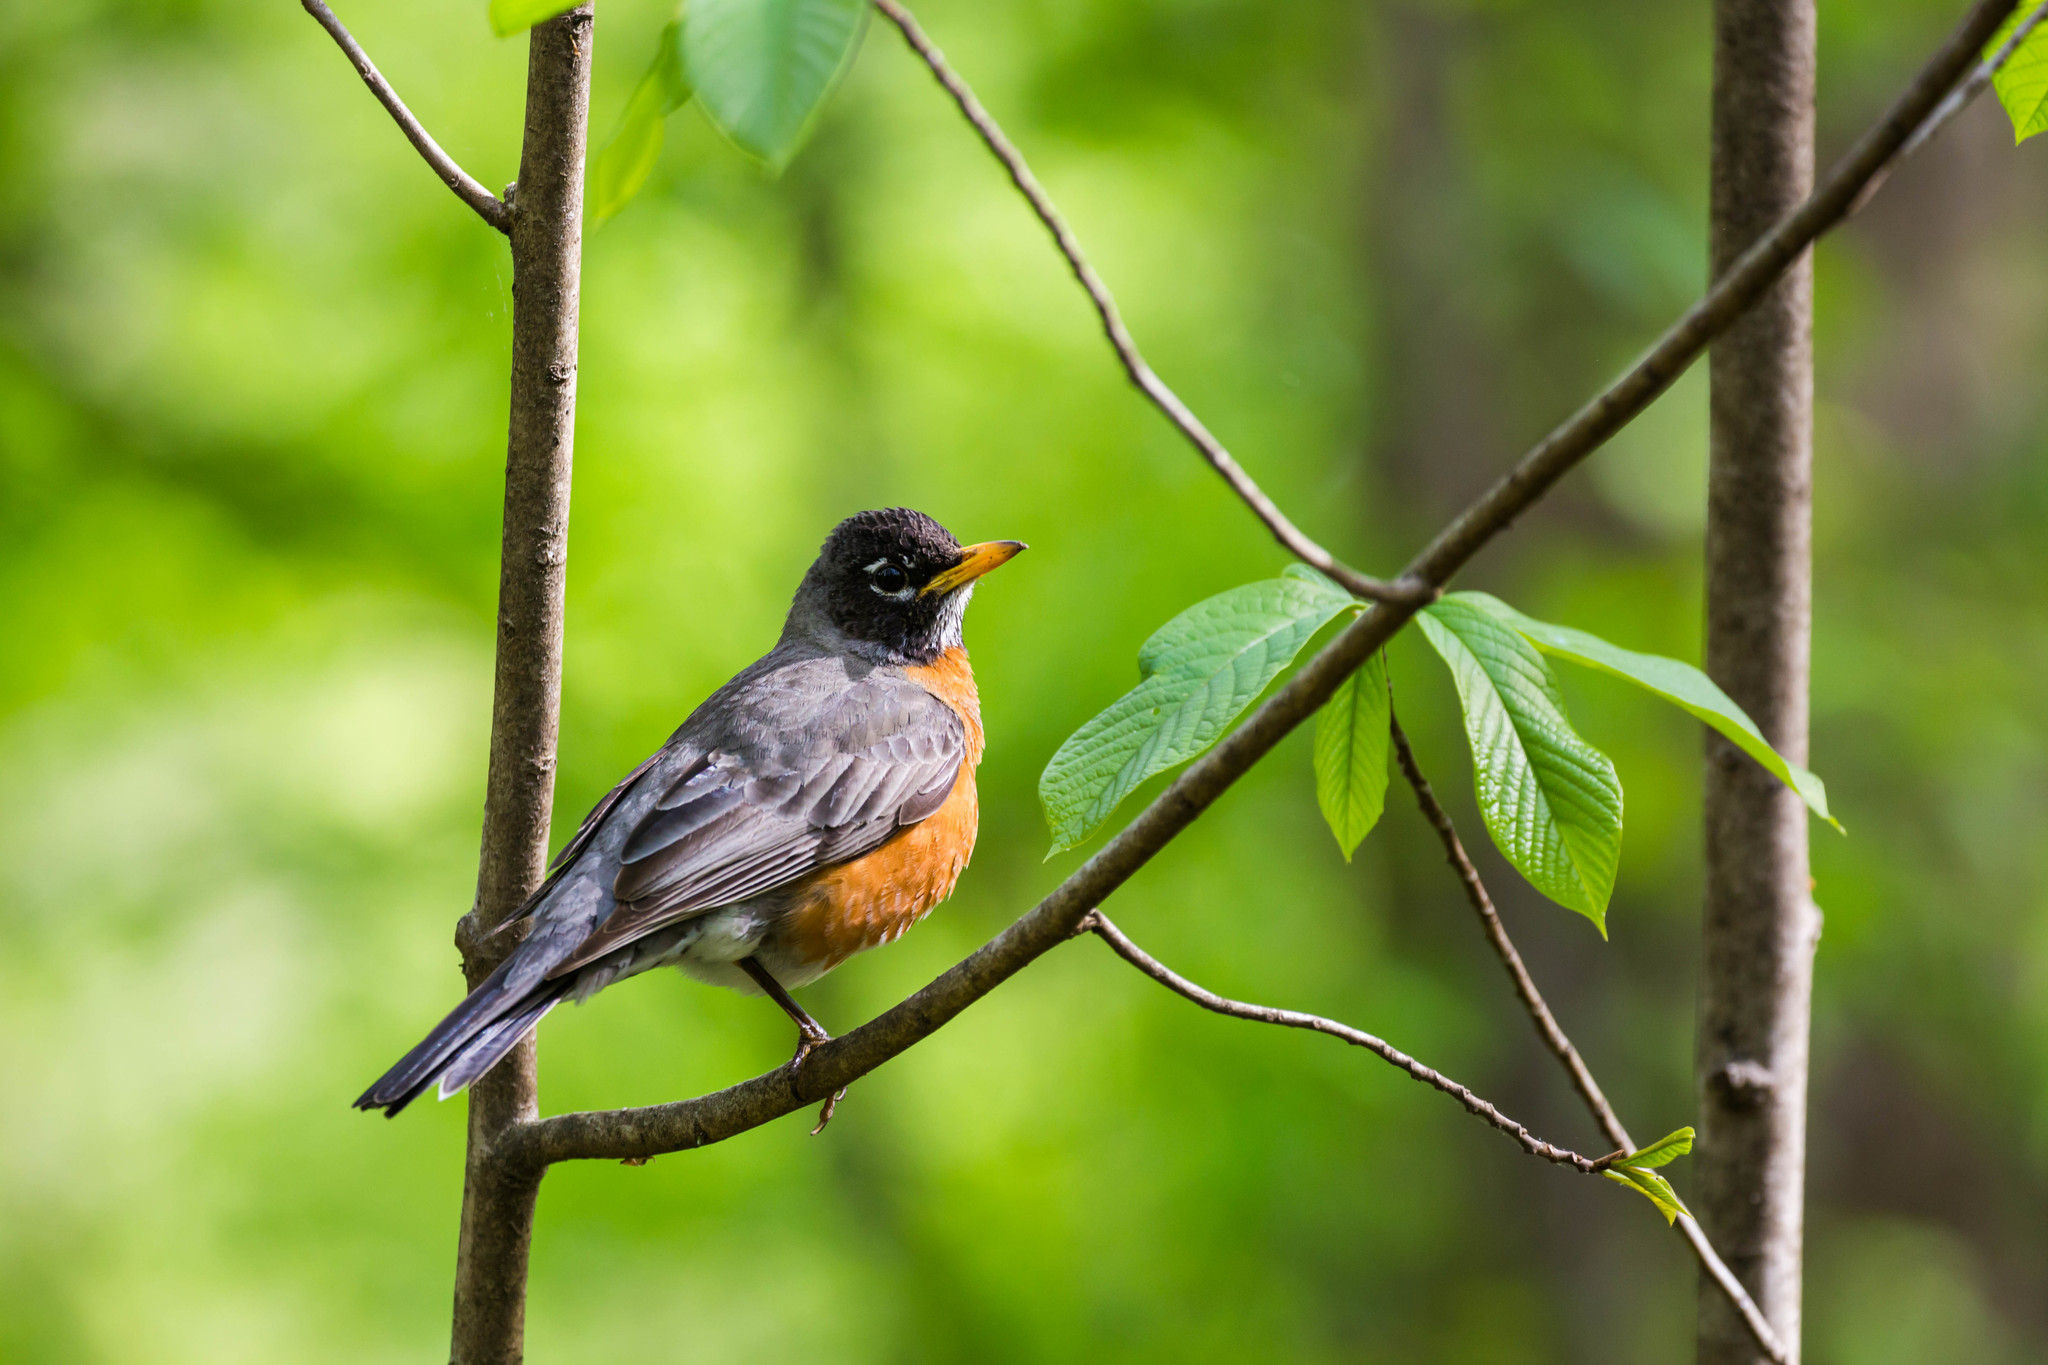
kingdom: Animalia
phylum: Chordata
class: Aves
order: Passeriformes
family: Turdidae
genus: Turdus
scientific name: Turdus migratorius
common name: American robin
